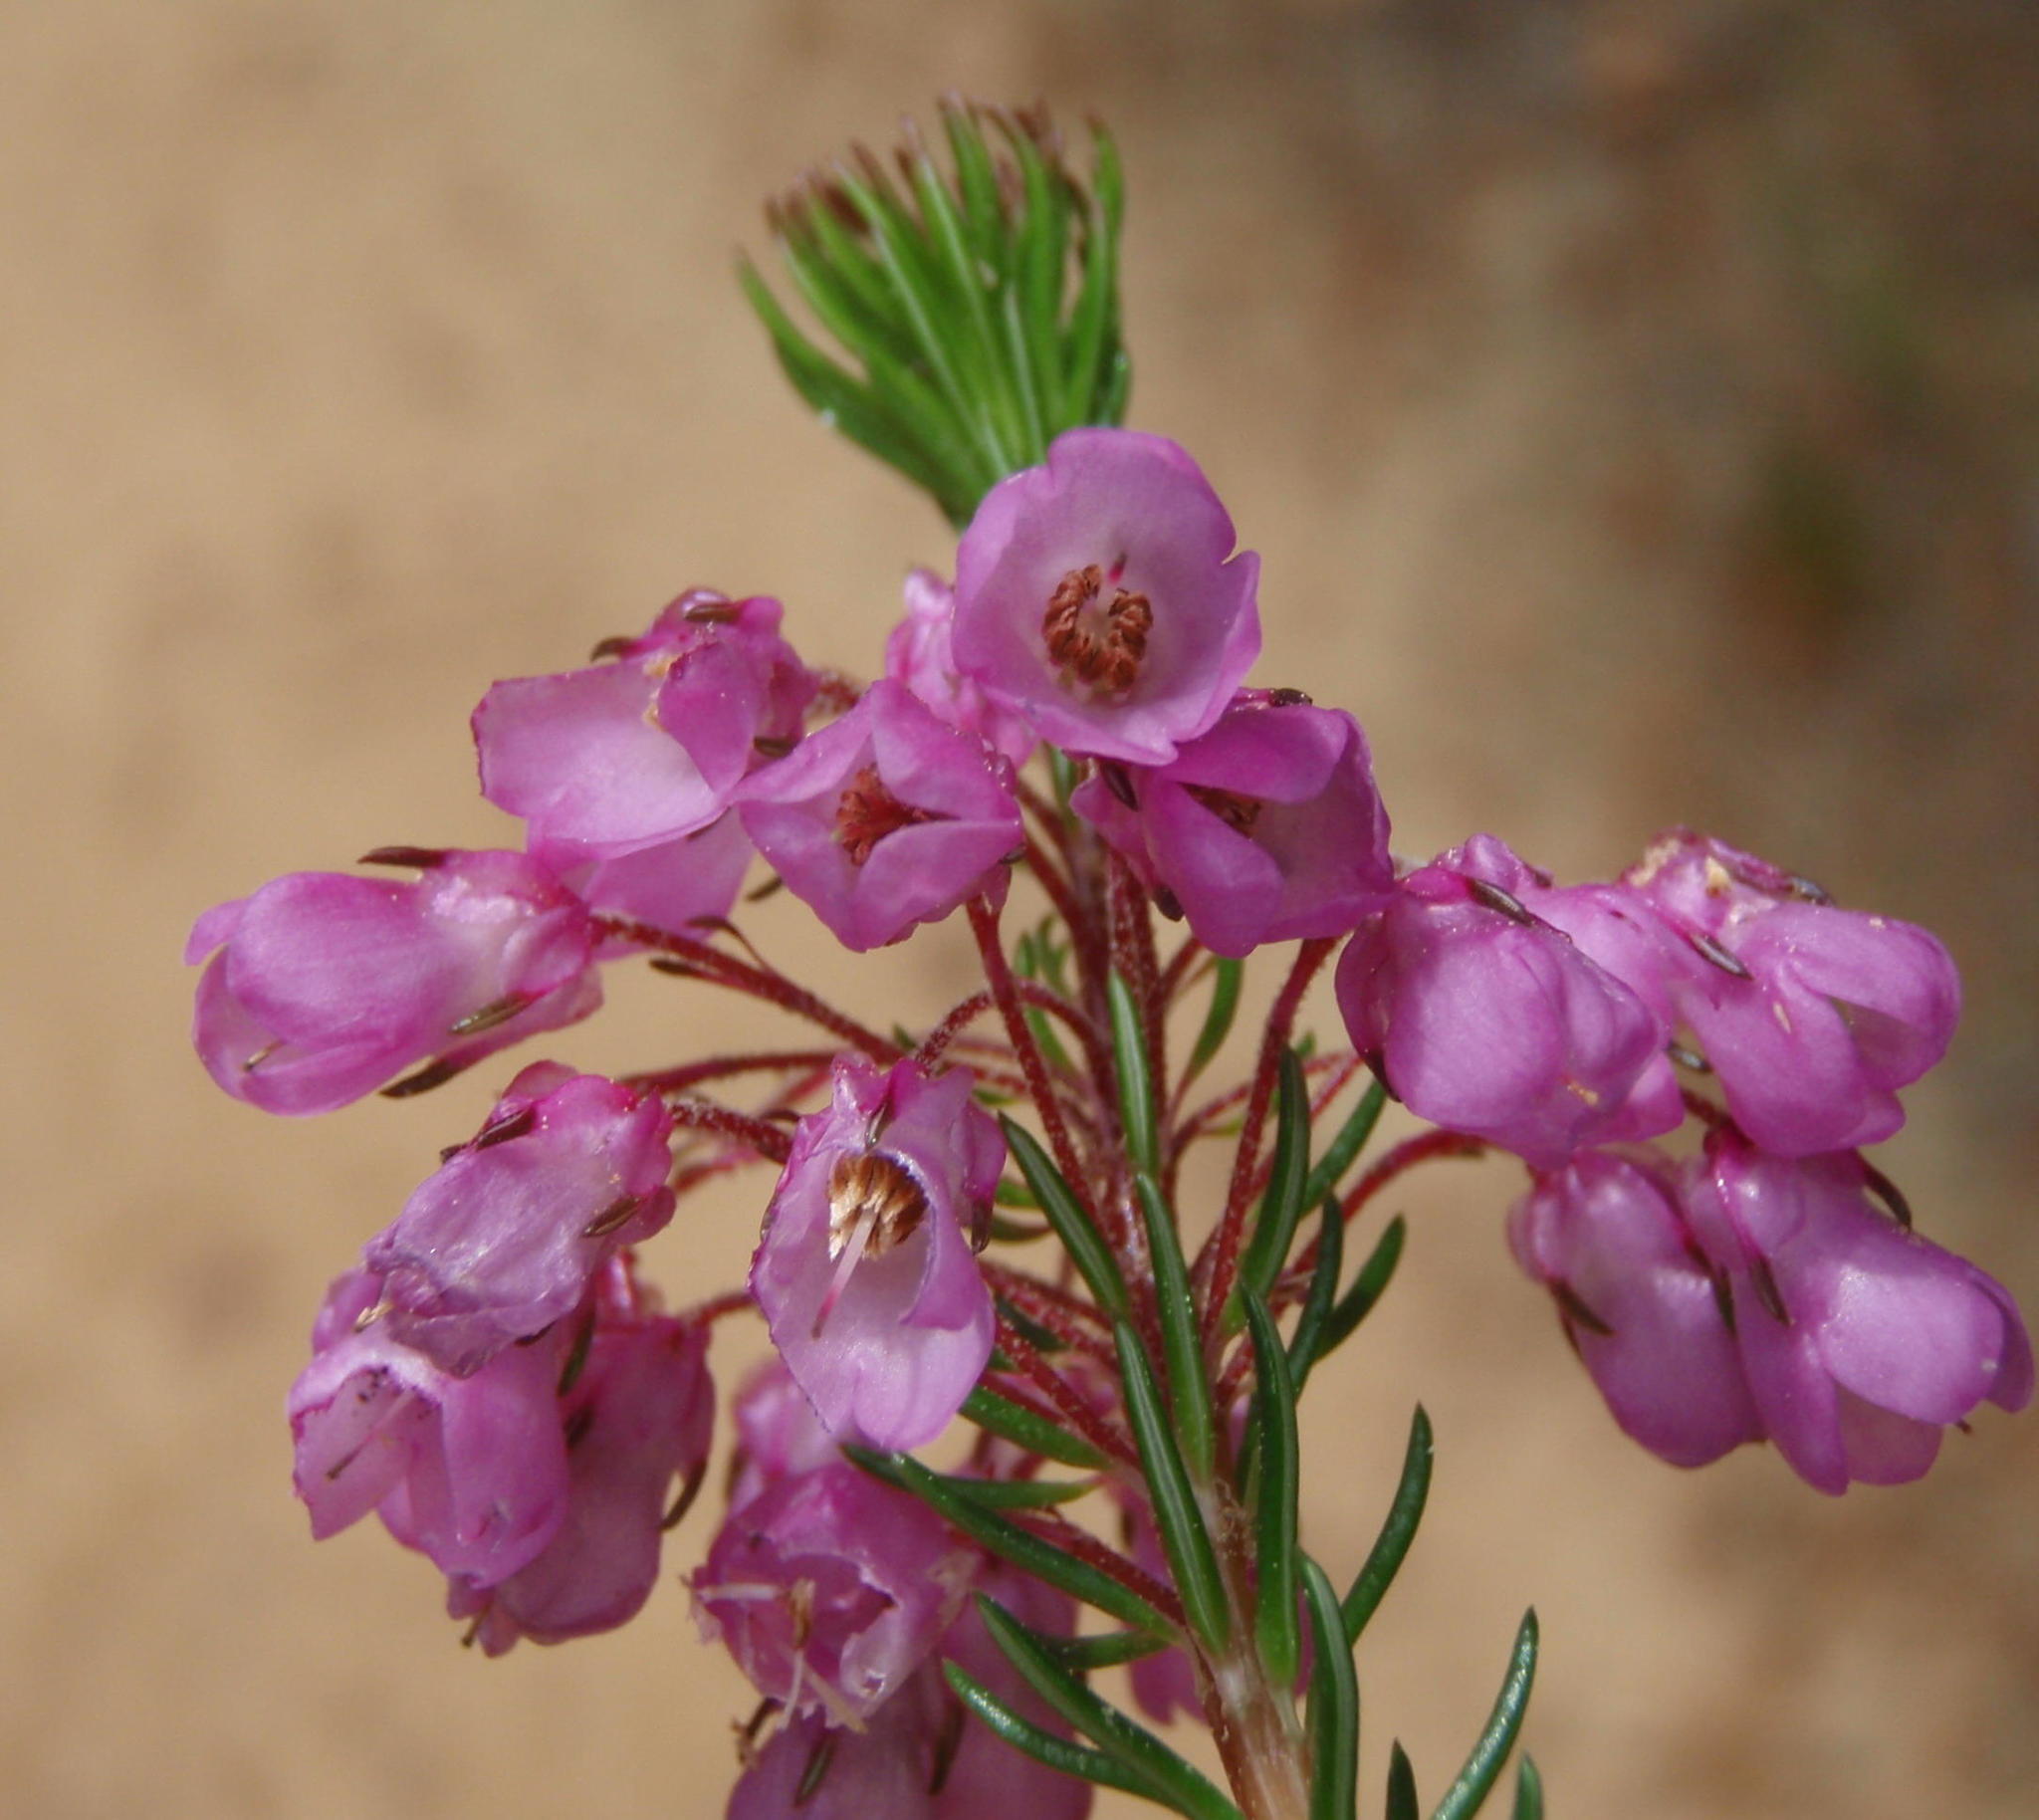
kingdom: Plantae
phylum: Tracheophyta
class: Magnoliopsida
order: Ericales
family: Ericaceae
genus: Erica
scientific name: Erica cubica
